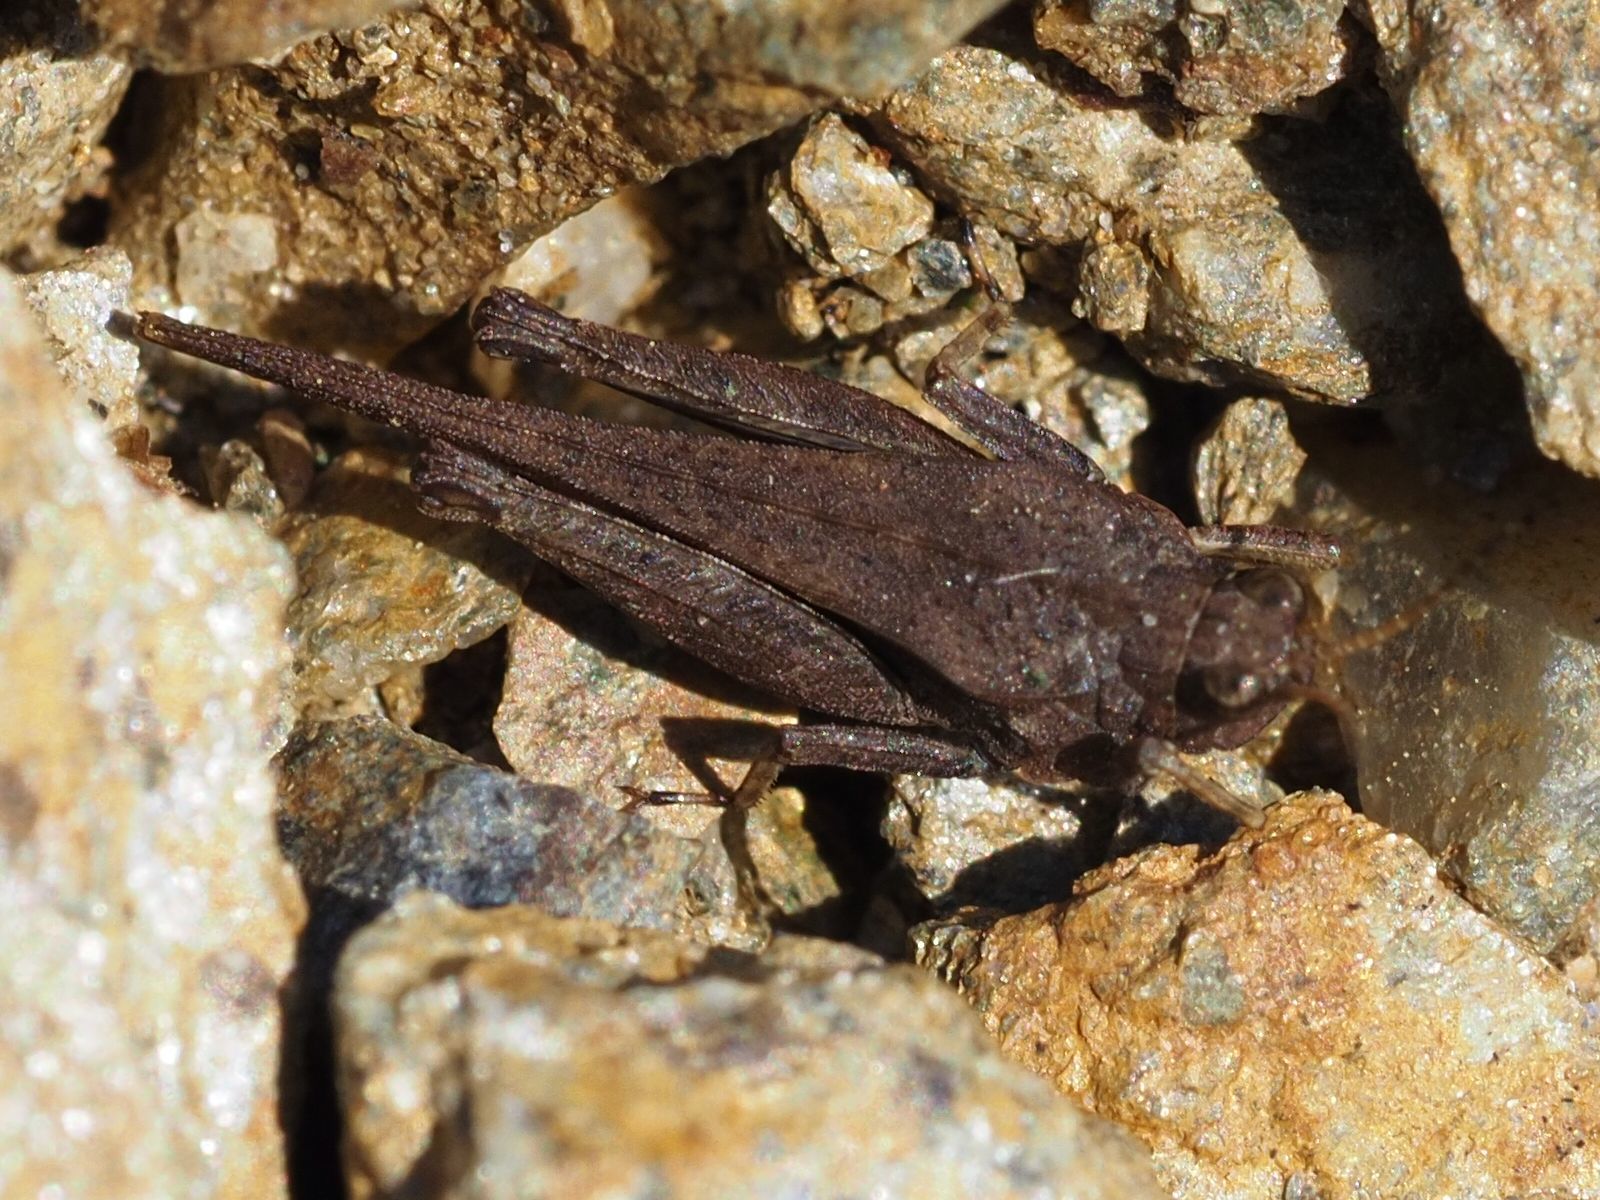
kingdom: Animalia
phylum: Arthropoda
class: Insecta
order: Orthoptera
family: Tetrigidae
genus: Tetrix
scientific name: Tetrix subulata
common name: Slender ground-hopper
